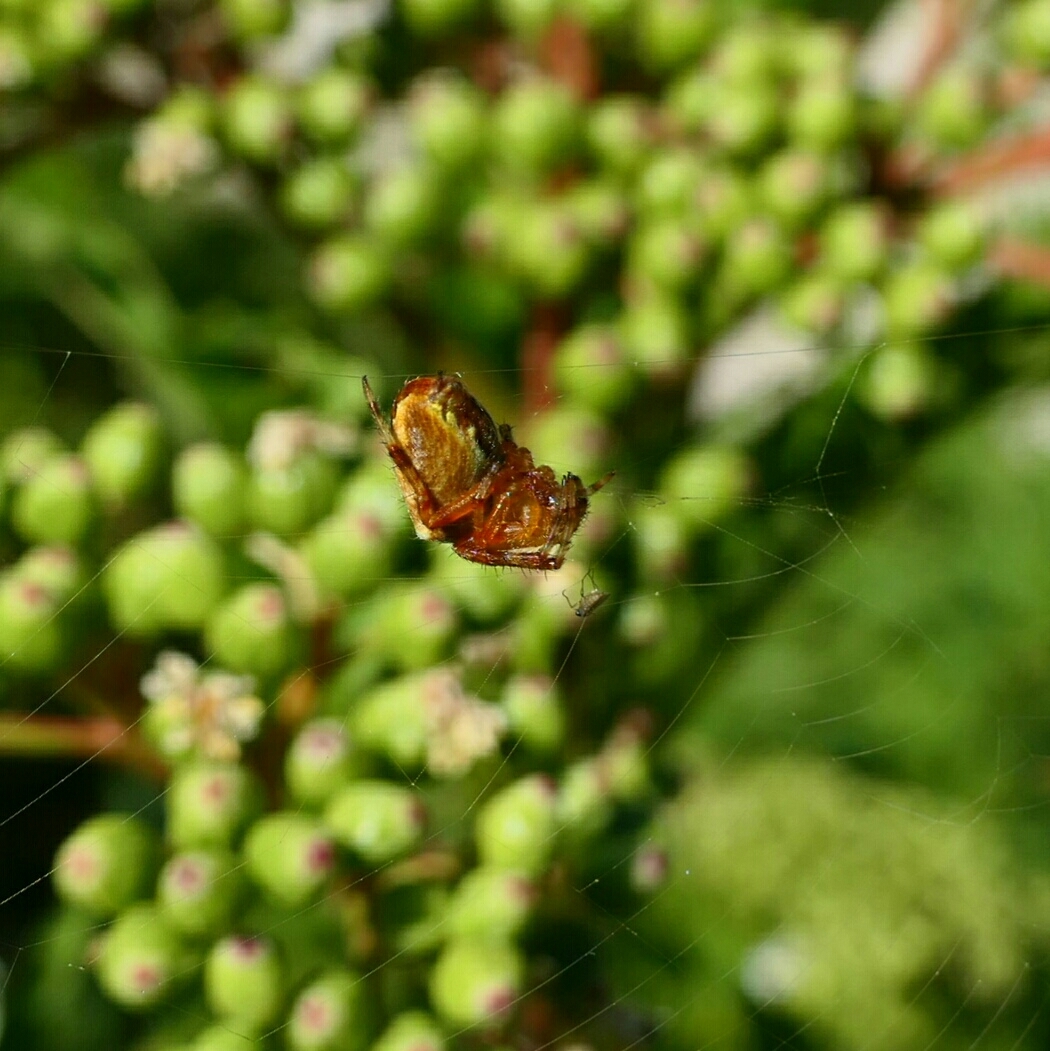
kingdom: Animalia
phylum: Arthropoda
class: Arachnida
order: Araneae
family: Araneidae
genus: Araneus
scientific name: Araneus diadematus
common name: Cross orbweaver
